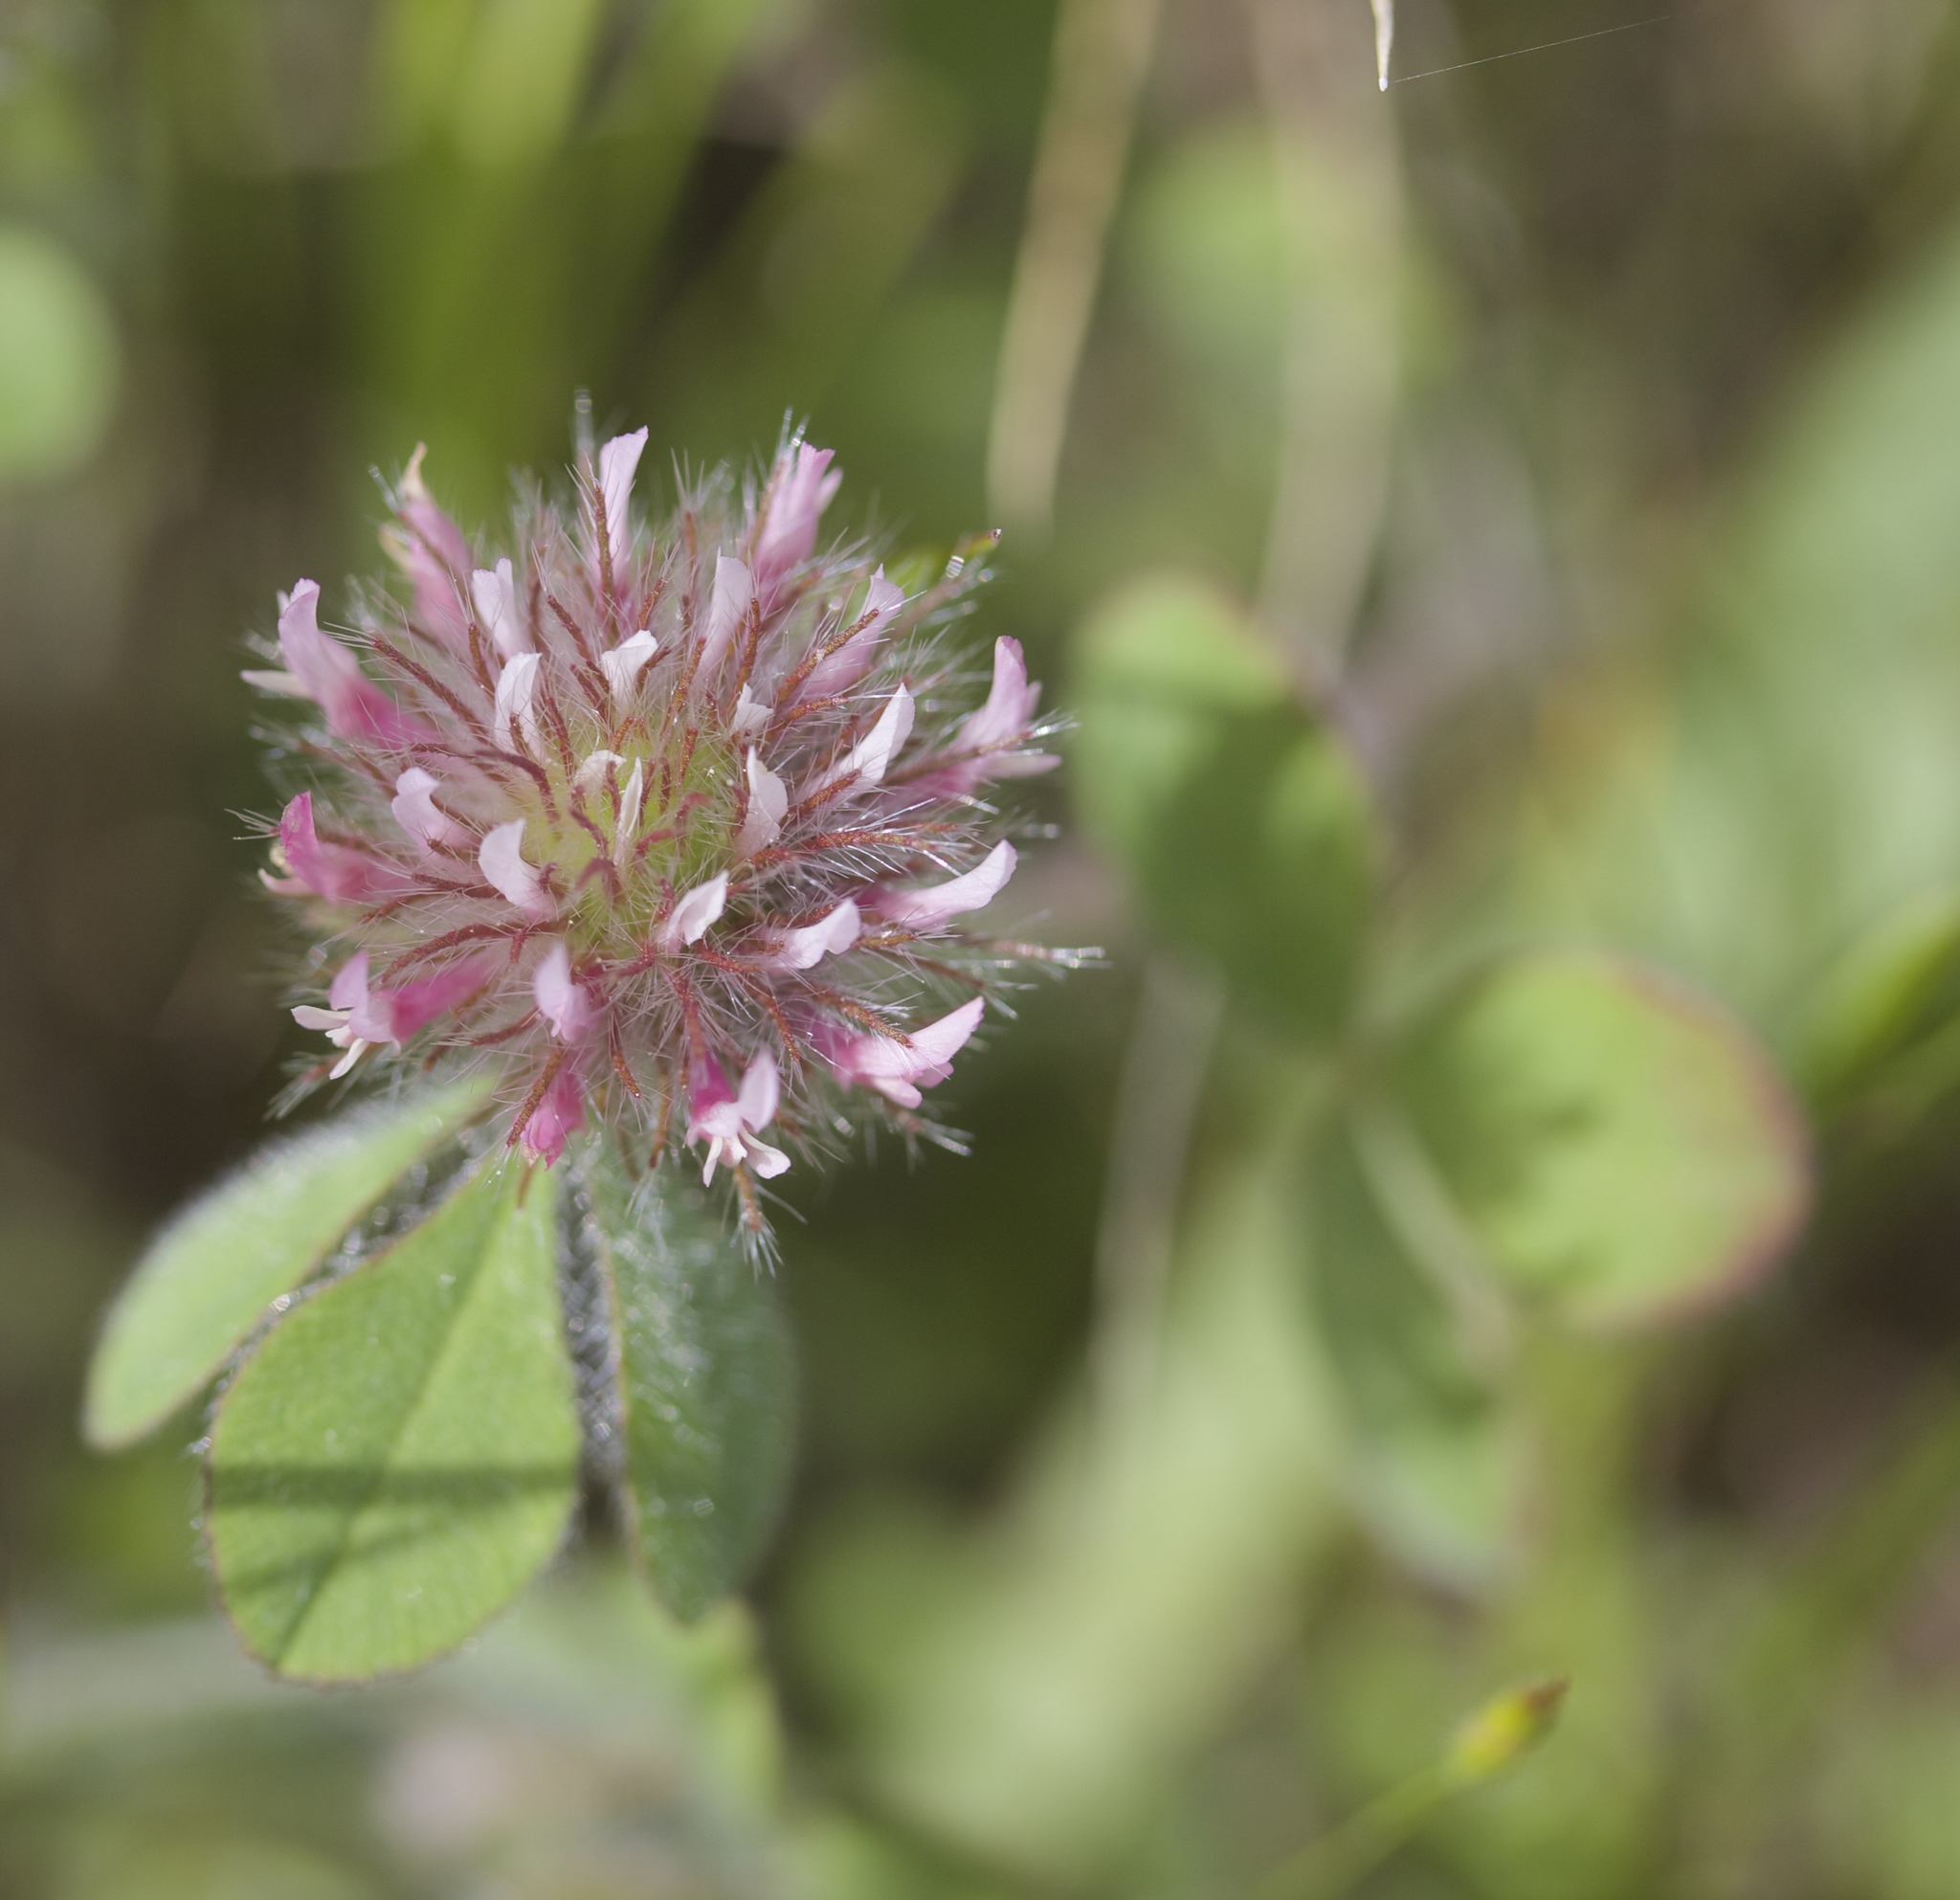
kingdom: Plantae
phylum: Tracheophyta
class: Magnoliopsida
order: Fabales
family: Fabaceae
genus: Trifolium
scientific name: Trifolium hirtum
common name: Rose clover
